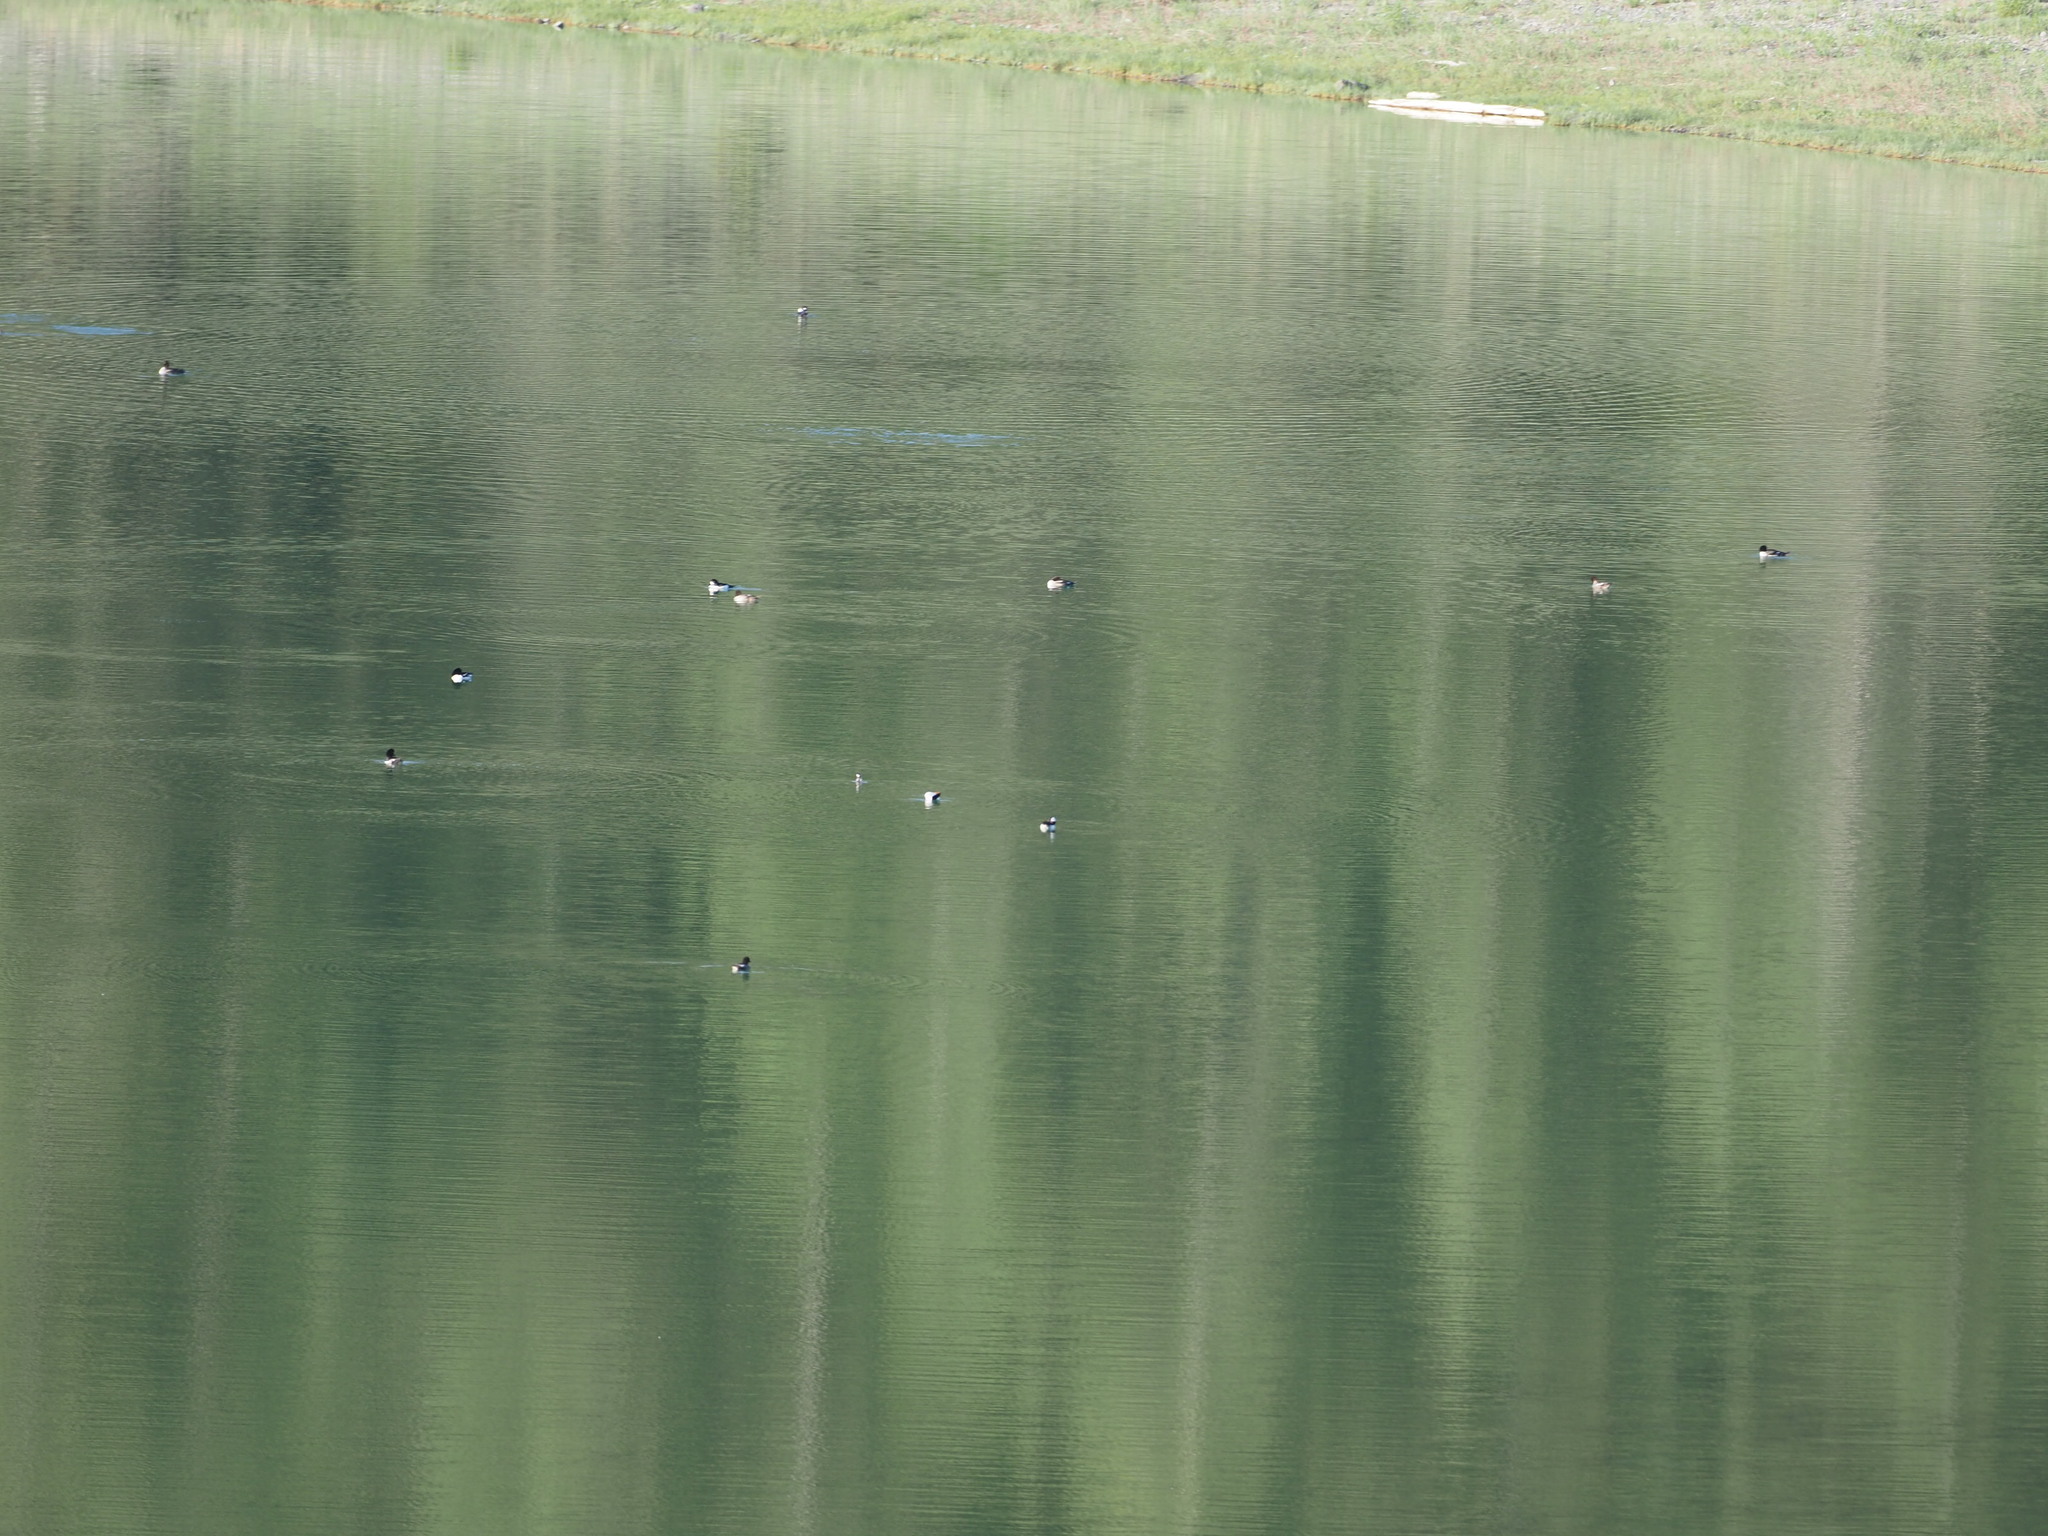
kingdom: Animalia
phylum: Chordata
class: Aves
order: Anseriformes
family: Anatidae
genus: Bucephala
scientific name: Bucephala albeola
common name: Bufflehead
